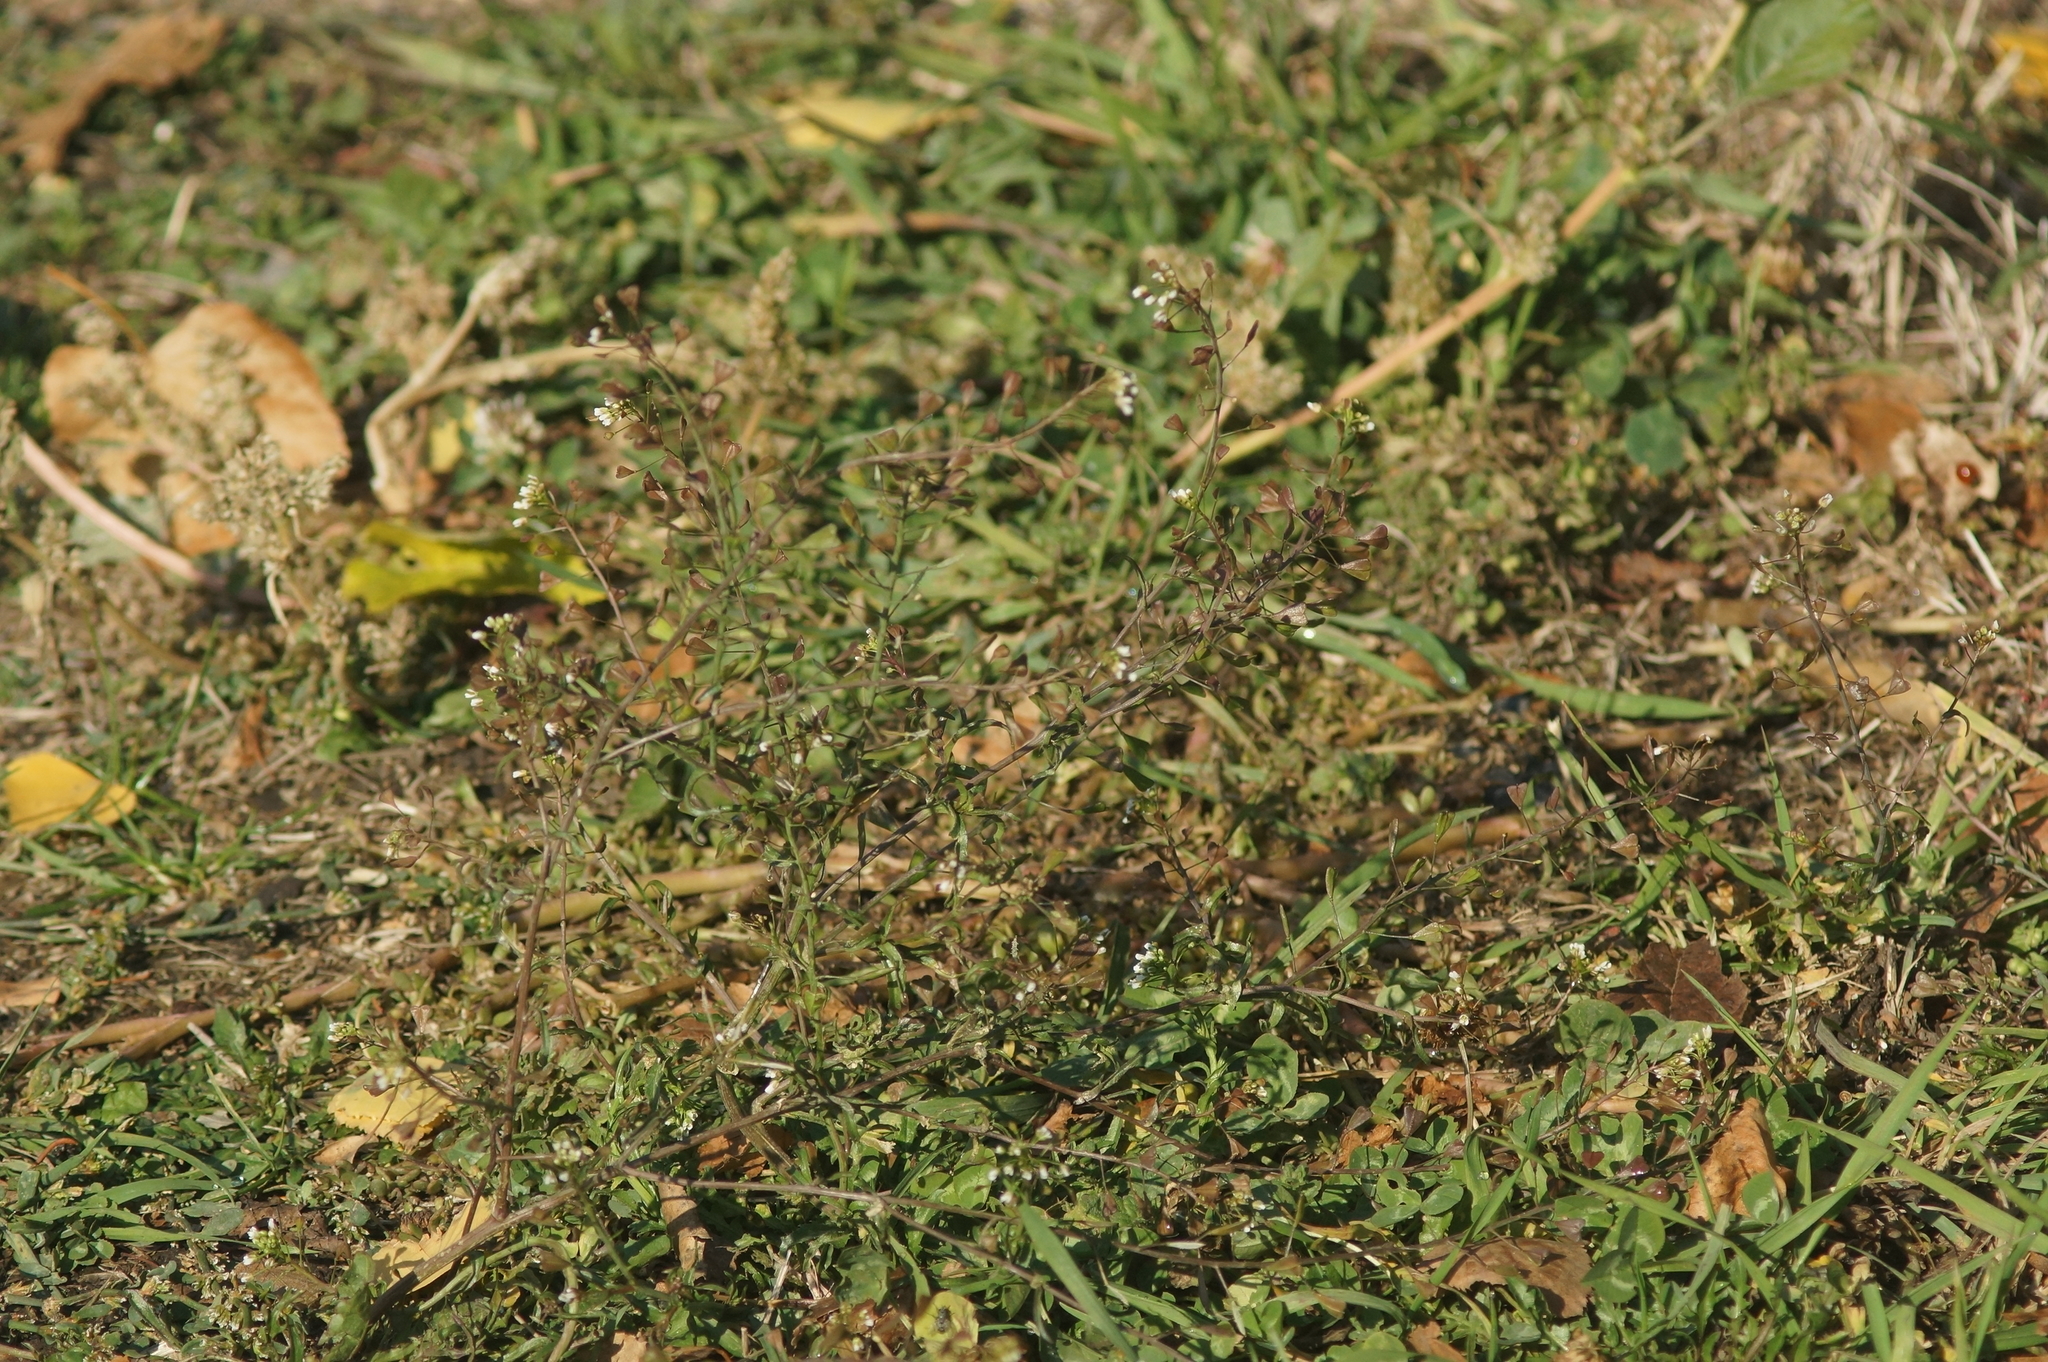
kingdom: Plantae
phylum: Tracheophyta
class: Magnoliopsida
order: Brassicales
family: Brassicaceae
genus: Capsella
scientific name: Capsella bursa-pastoris
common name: Shepherd's purse
